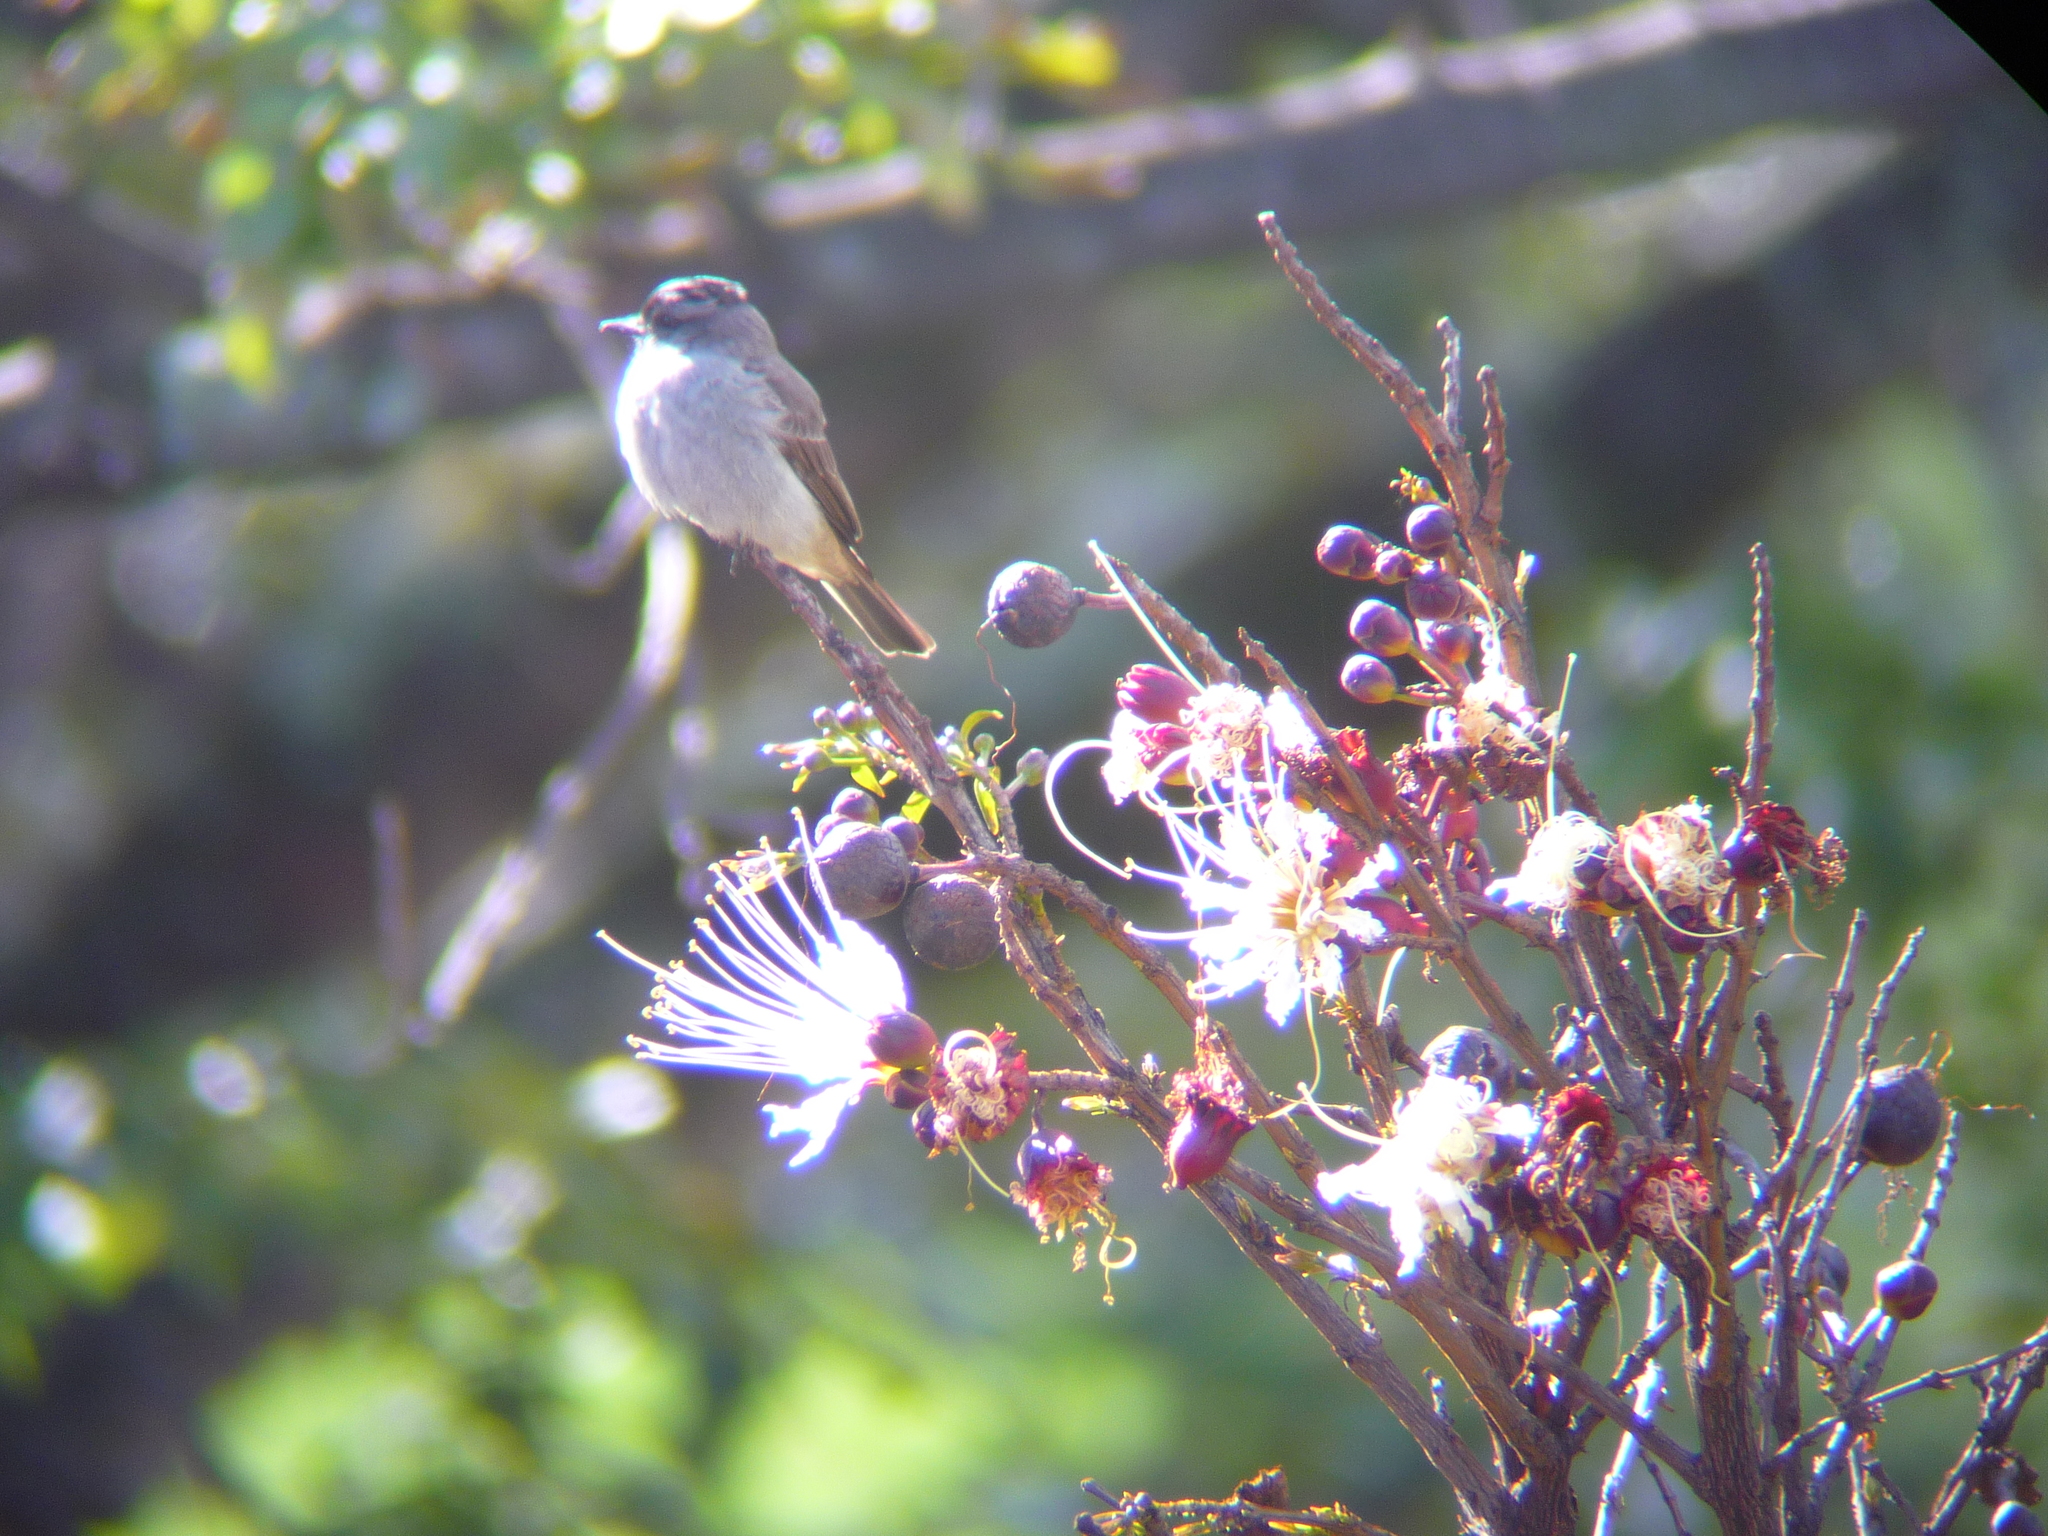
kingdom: Animalia
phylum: Chordata
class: Aves
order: Passeriformes
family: Tyrannidae
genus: Empidonomus
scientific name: Empidonomus aurantioatrocristatus
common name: Crowned slaty flycatcher
